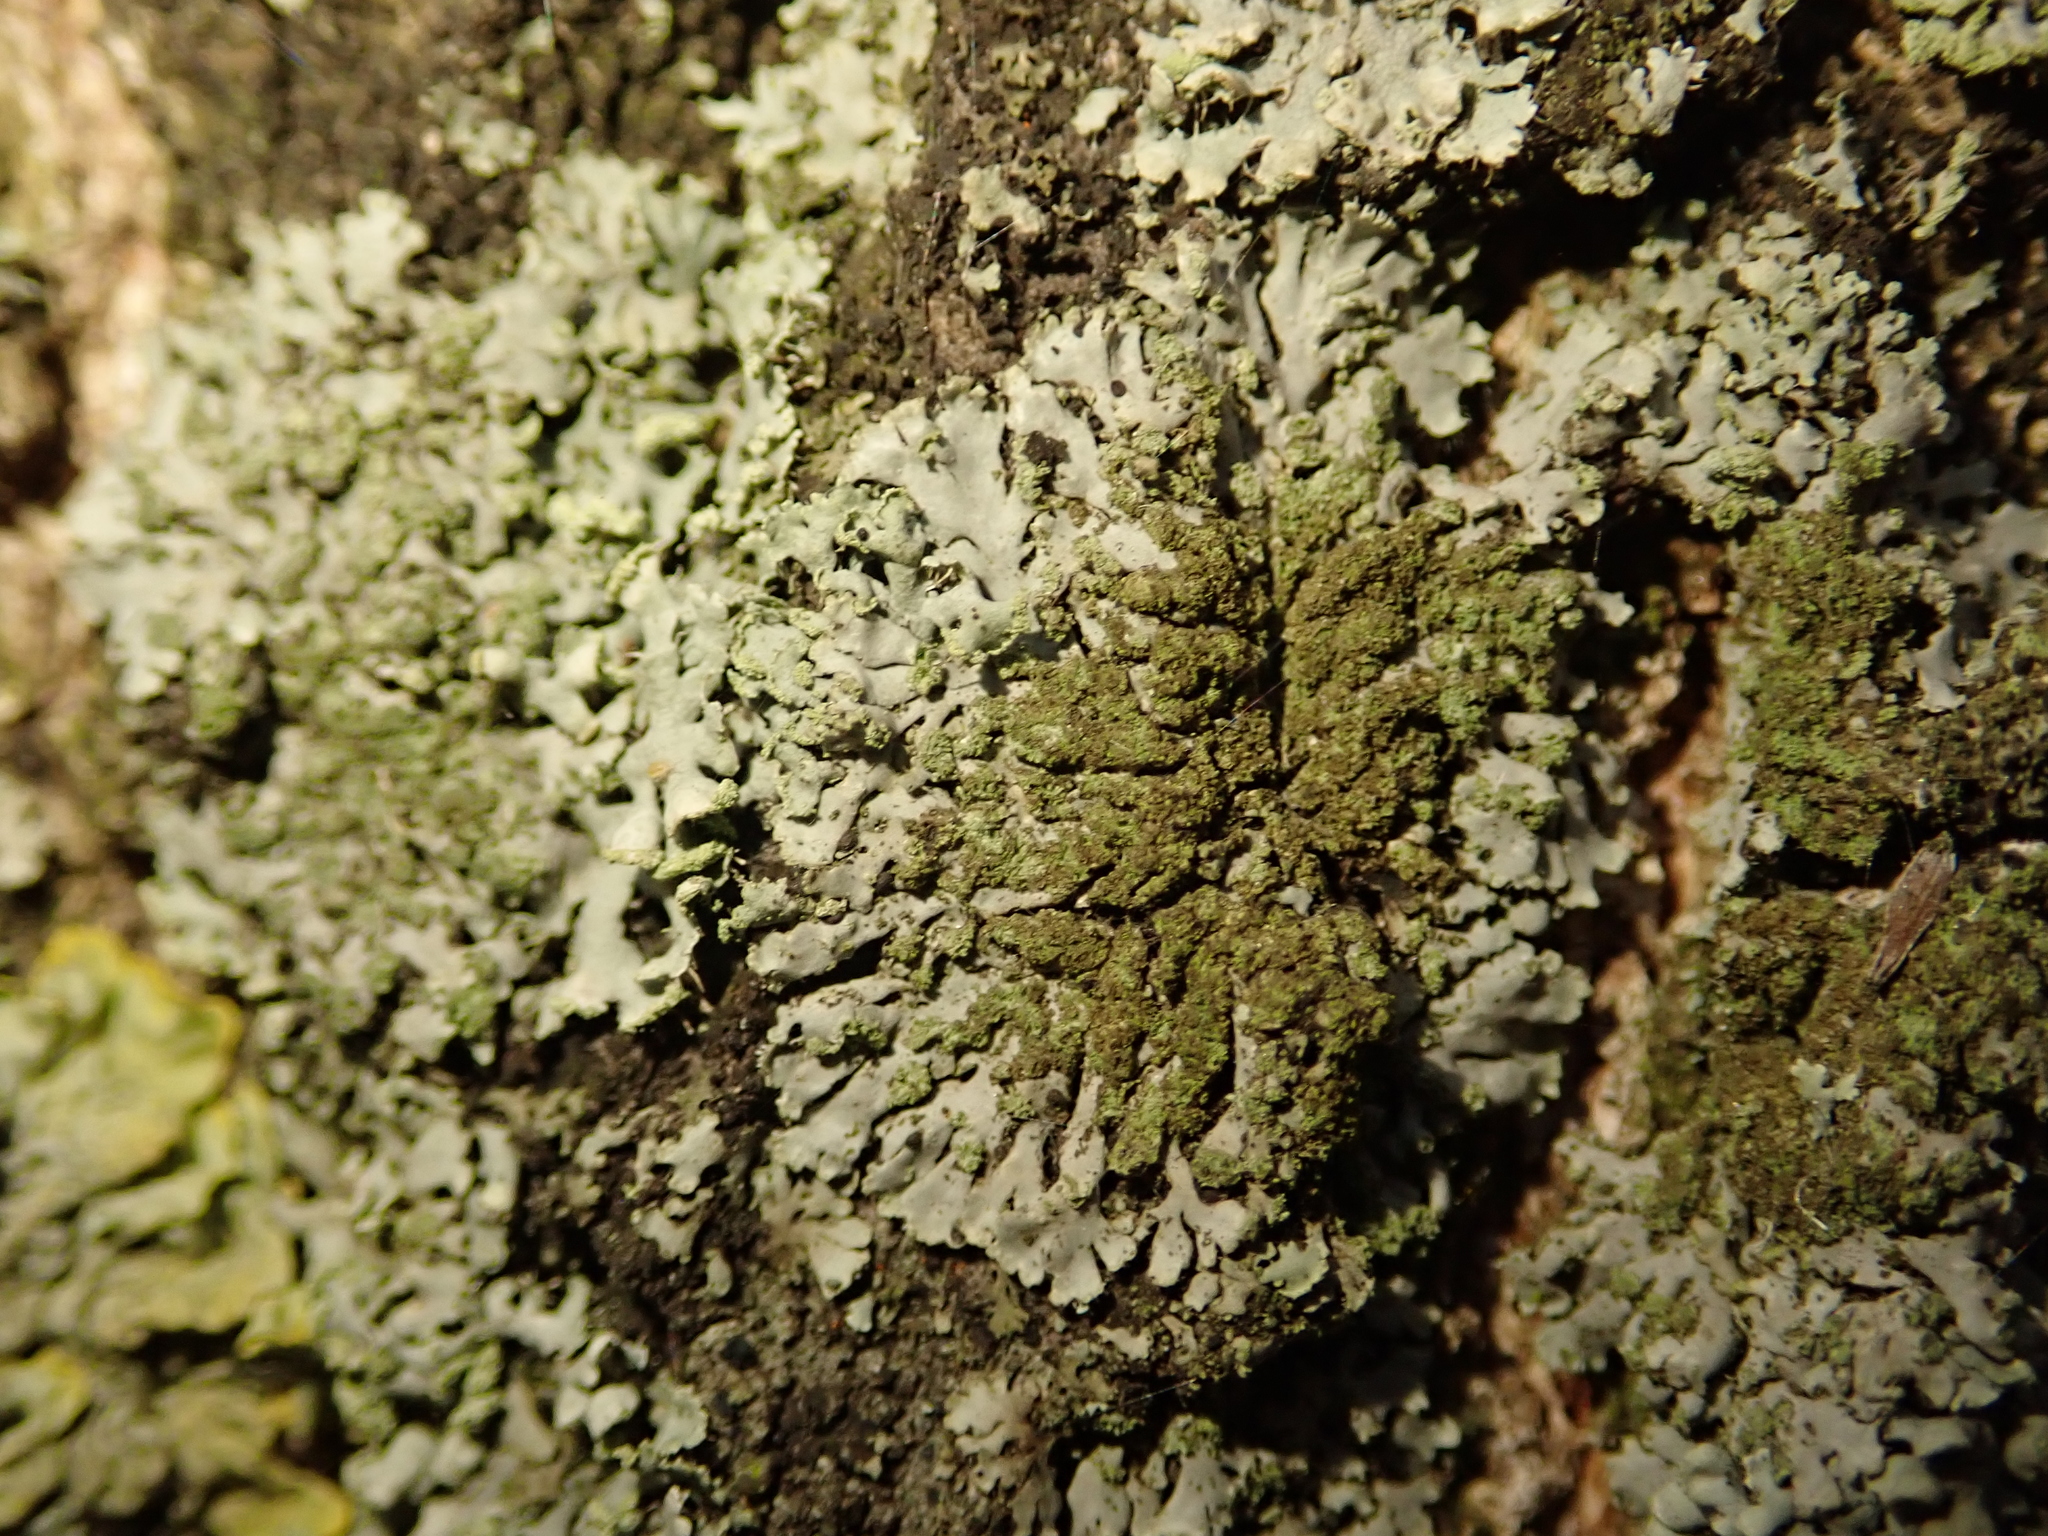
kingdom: Fungi
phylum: Ascomycota
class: Lecanoromycetes
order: Caliciales
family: Physciaceae
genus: Phaeophyscia
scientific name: Phaeophyscia orbicularis
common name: Mealy shadow lichen
